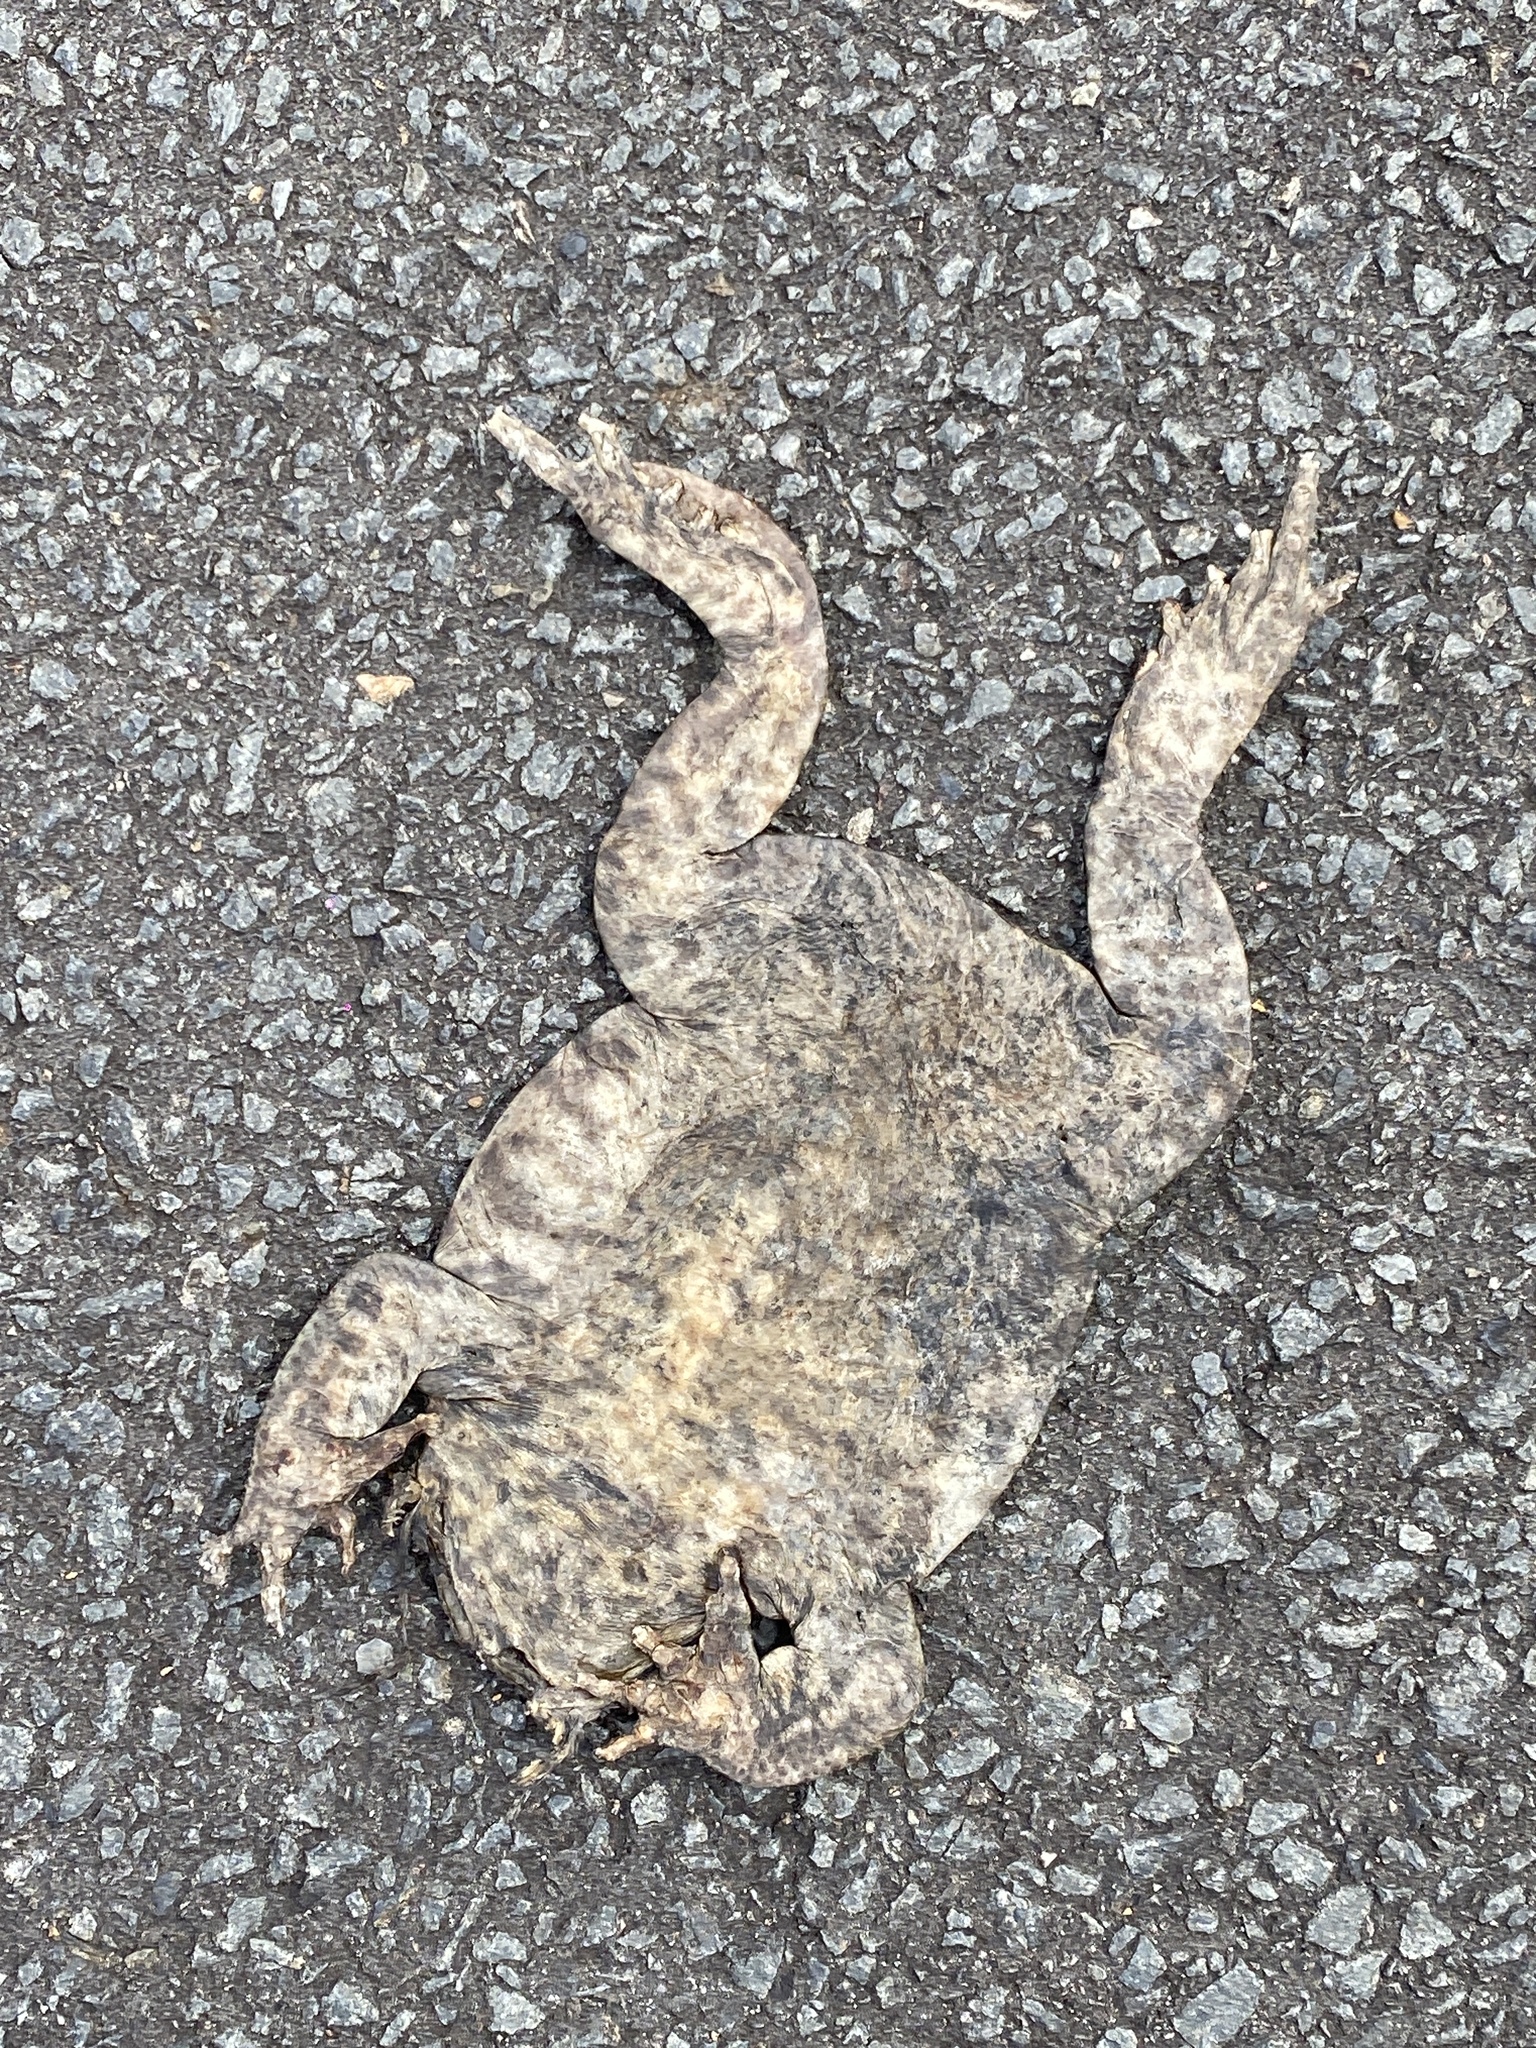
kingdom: Animalia
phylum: Chordata
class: Amphibia
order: Anura
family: Bufonidae
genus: Rhinella
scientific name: Rhinella marina
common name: Cane toad
